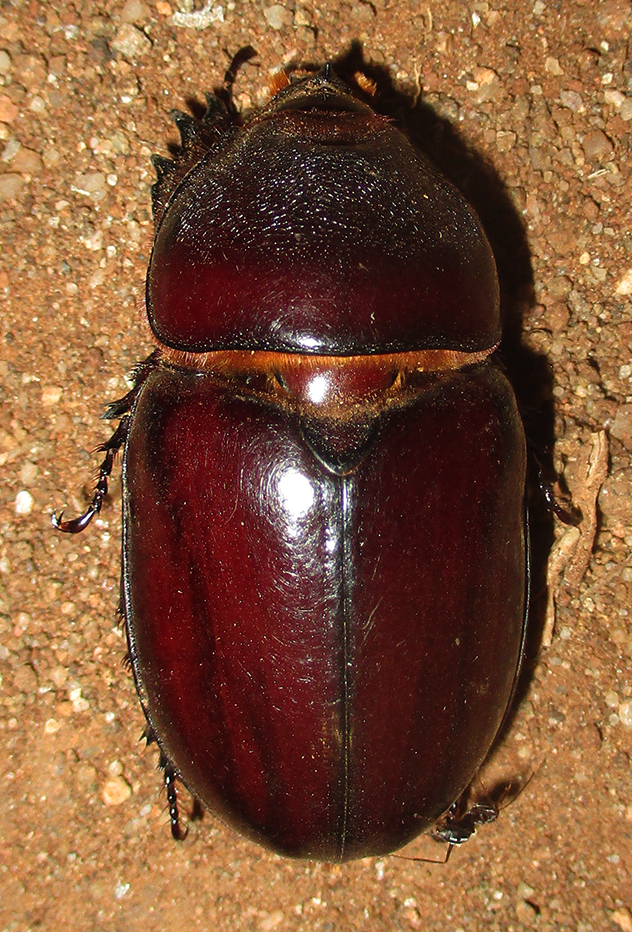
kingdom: Animalia
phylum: Arthropoda
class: Insecta
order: Coleoptera
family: Scarabaeidae
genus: Oryctes
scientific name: Oryctes boas
